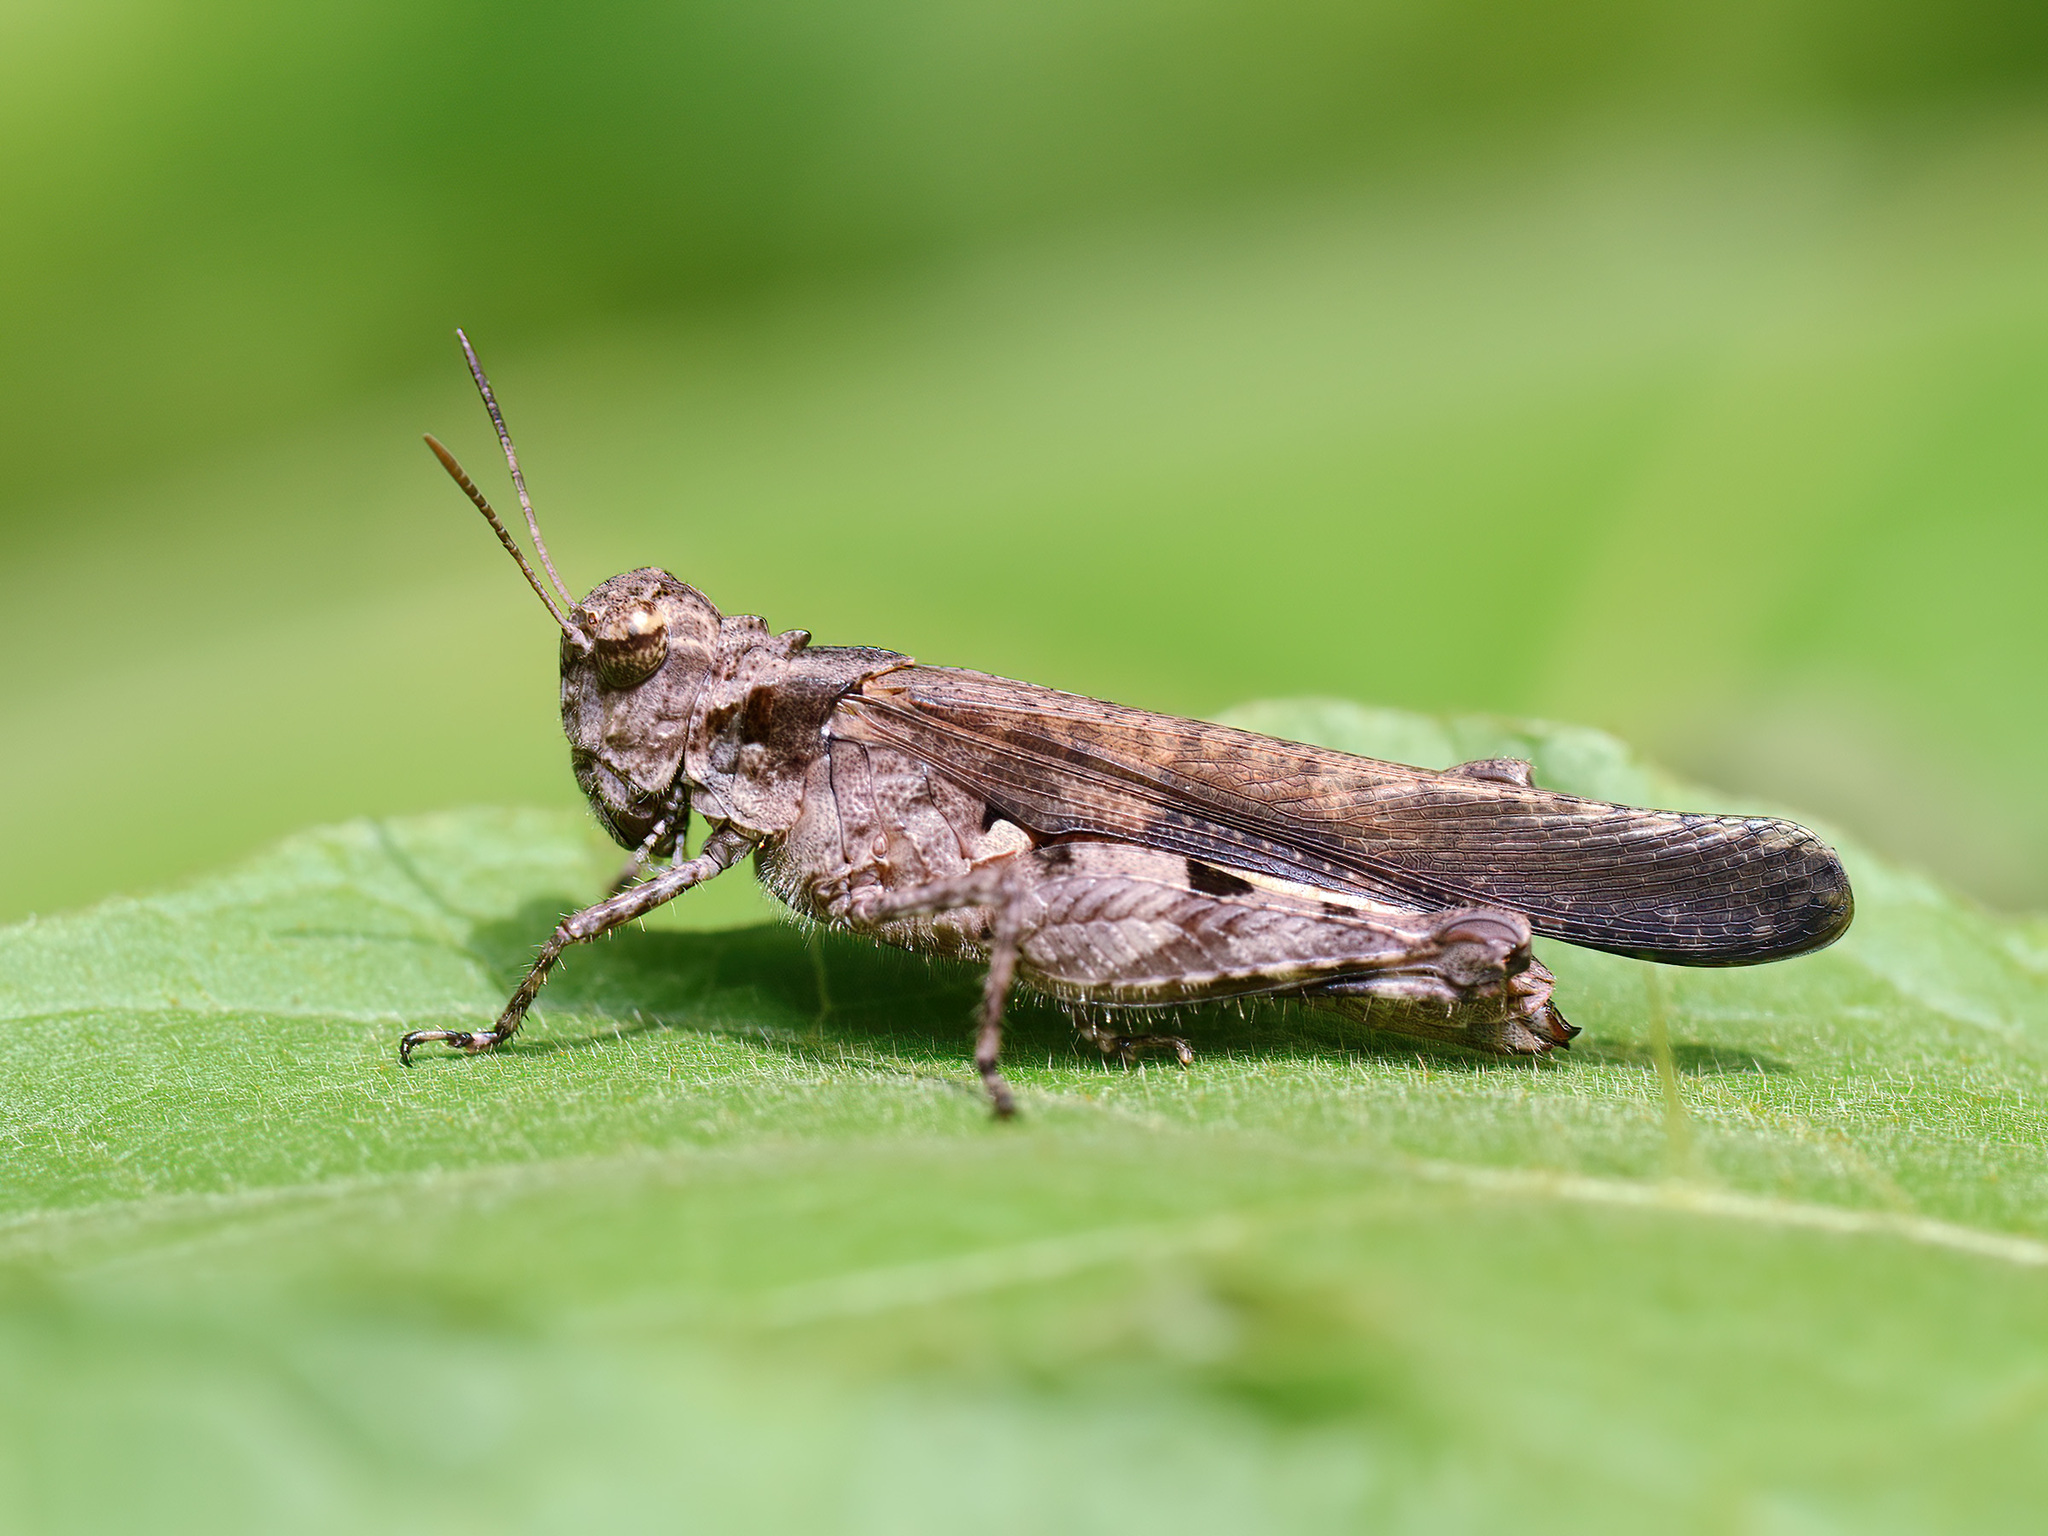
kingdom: Animalia
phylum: Arthropoda
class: Insecta
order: Orthoptera
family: Acrididae
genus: Trilophidia
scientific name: Trilophidia annulata
